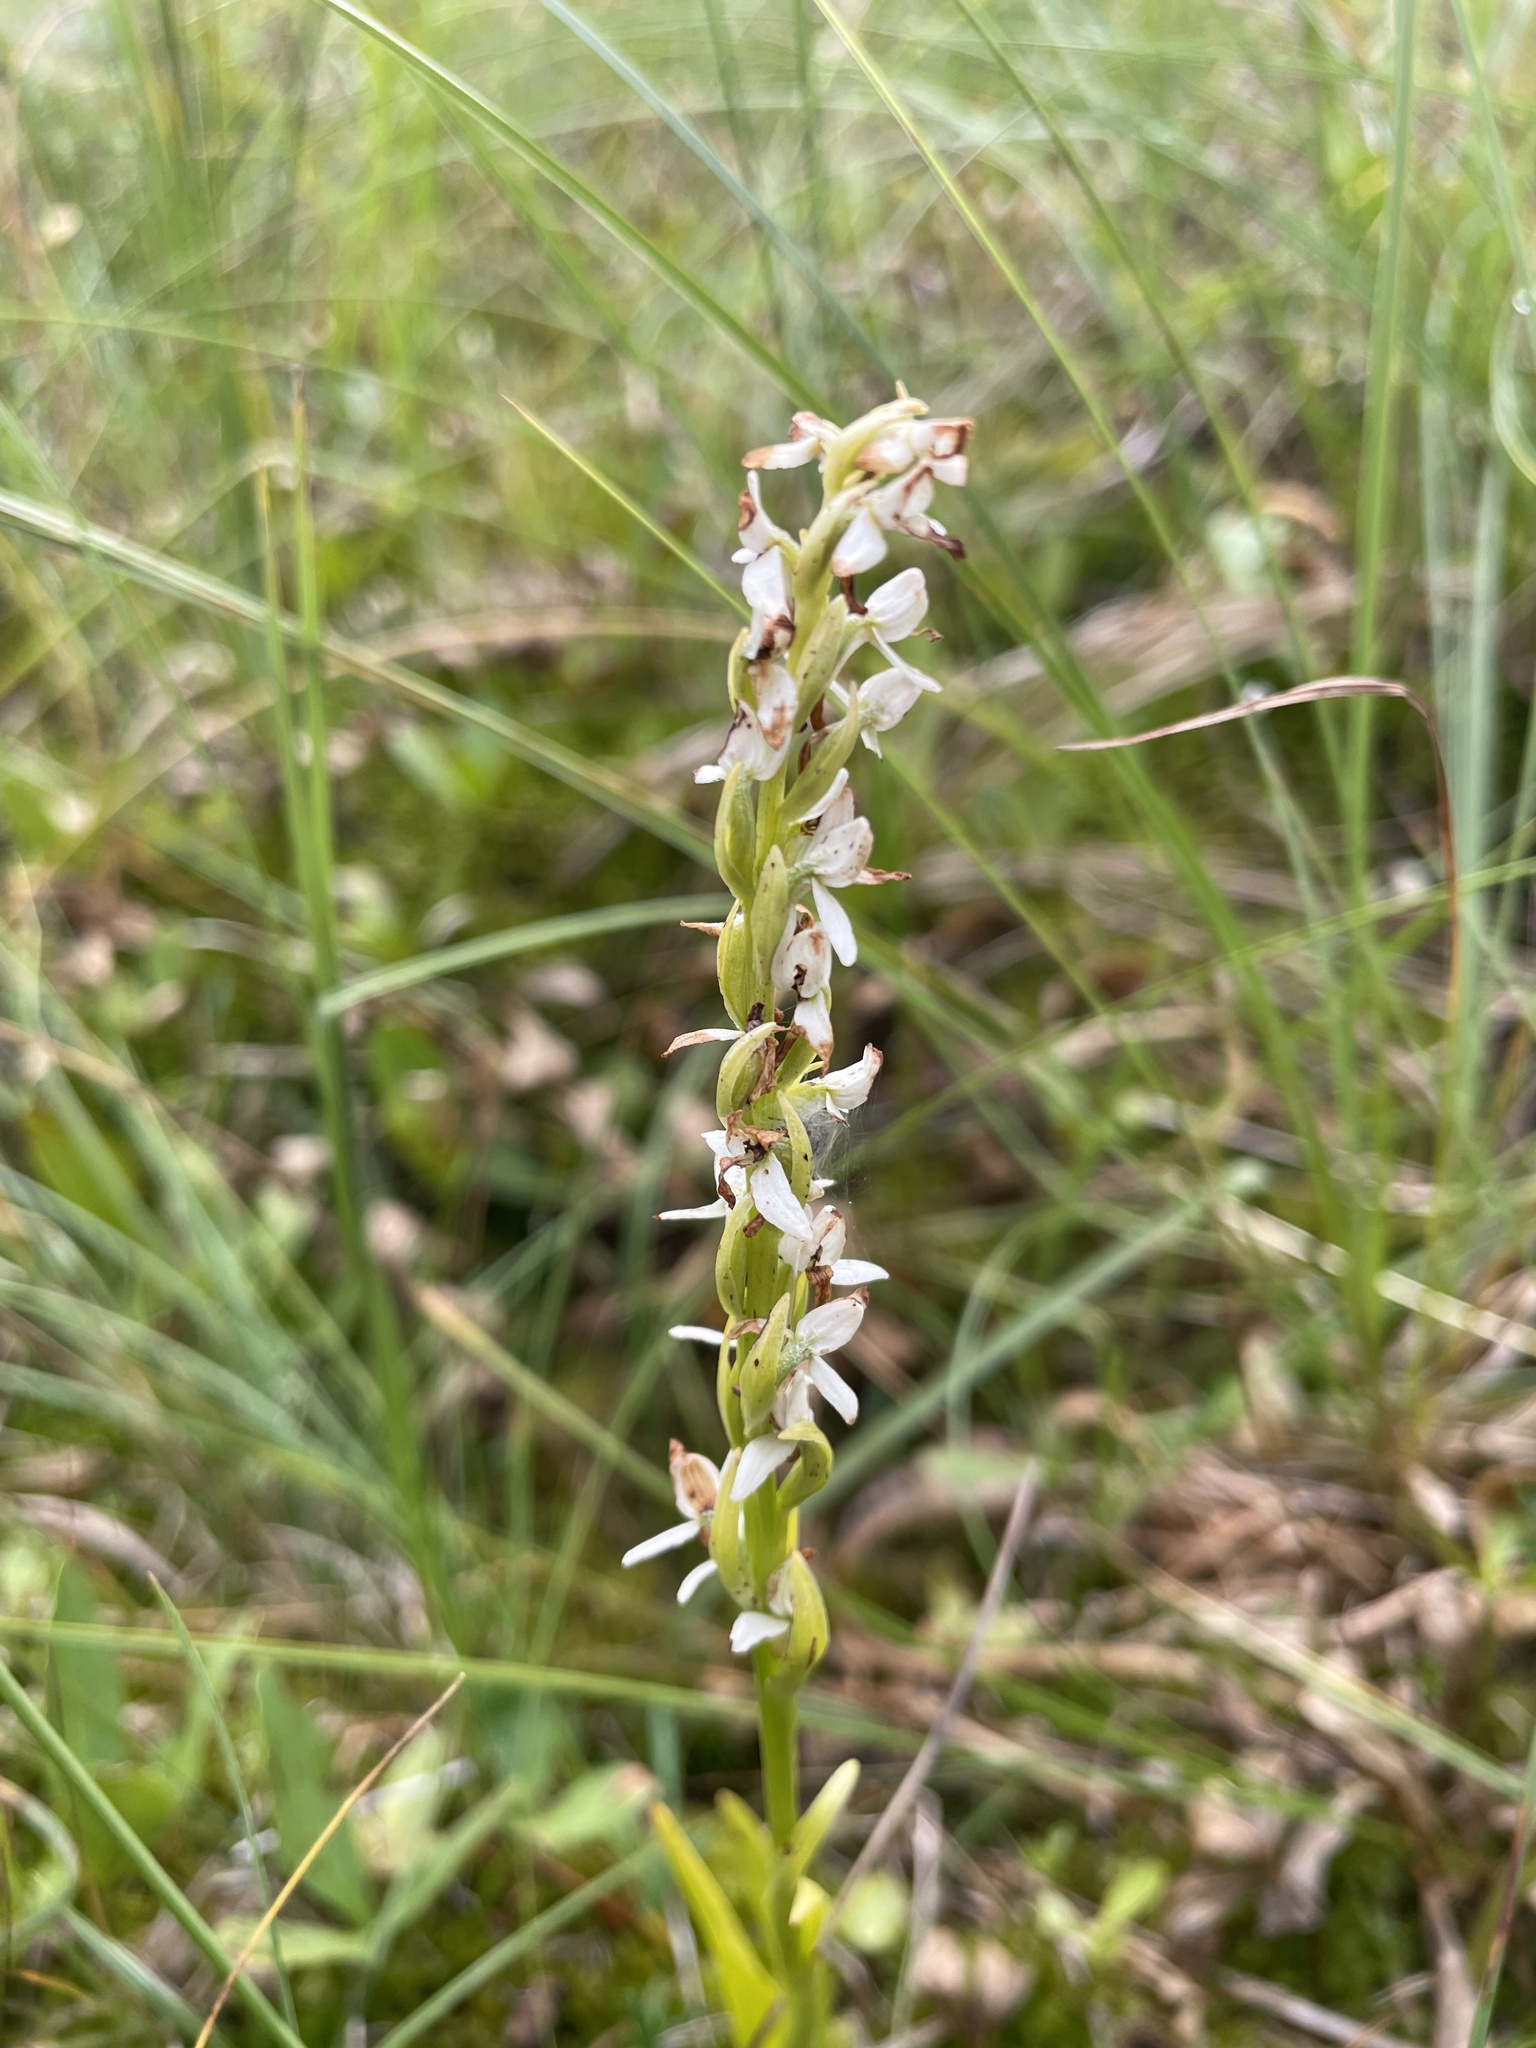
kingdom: Plantae
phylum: Tracheophyta
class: Liliopsida
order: Asparagales
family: Orchidaceae
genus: Platanthera
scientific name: Platanthera dilatata
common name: Bog candles
